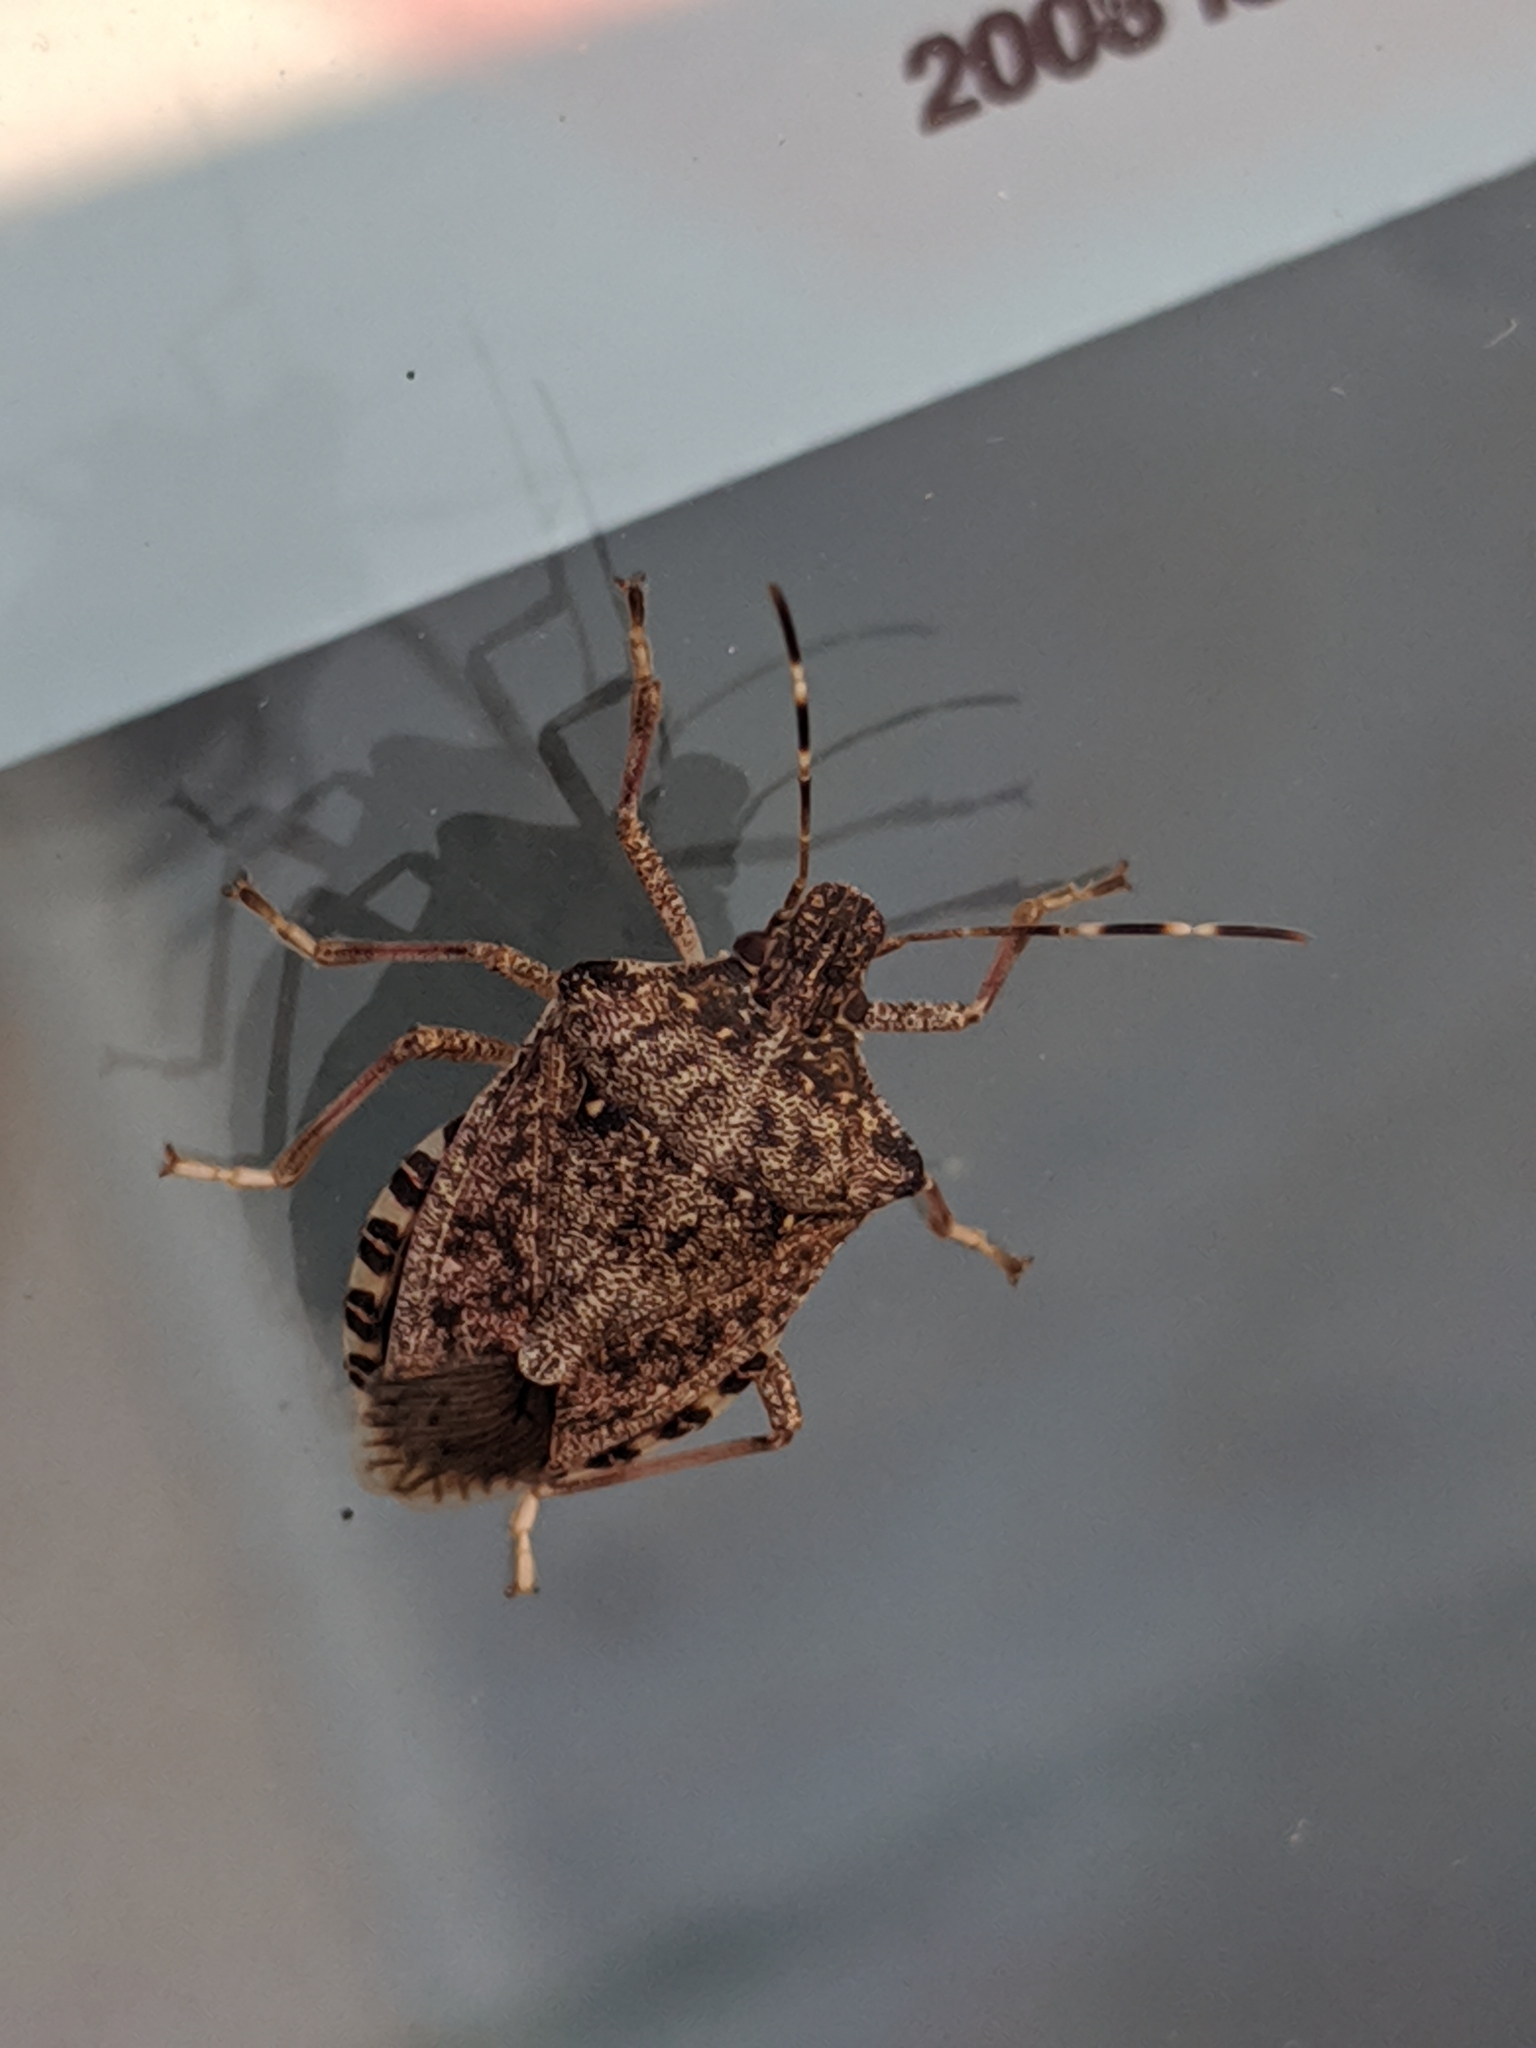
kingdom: Animalia
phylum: Arthropoda
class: Insecta
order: Hemiptera
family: Pentatomidae
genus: Halyomorpha
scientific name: Halyomorpha halys
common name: Brown marmorated stink bug
